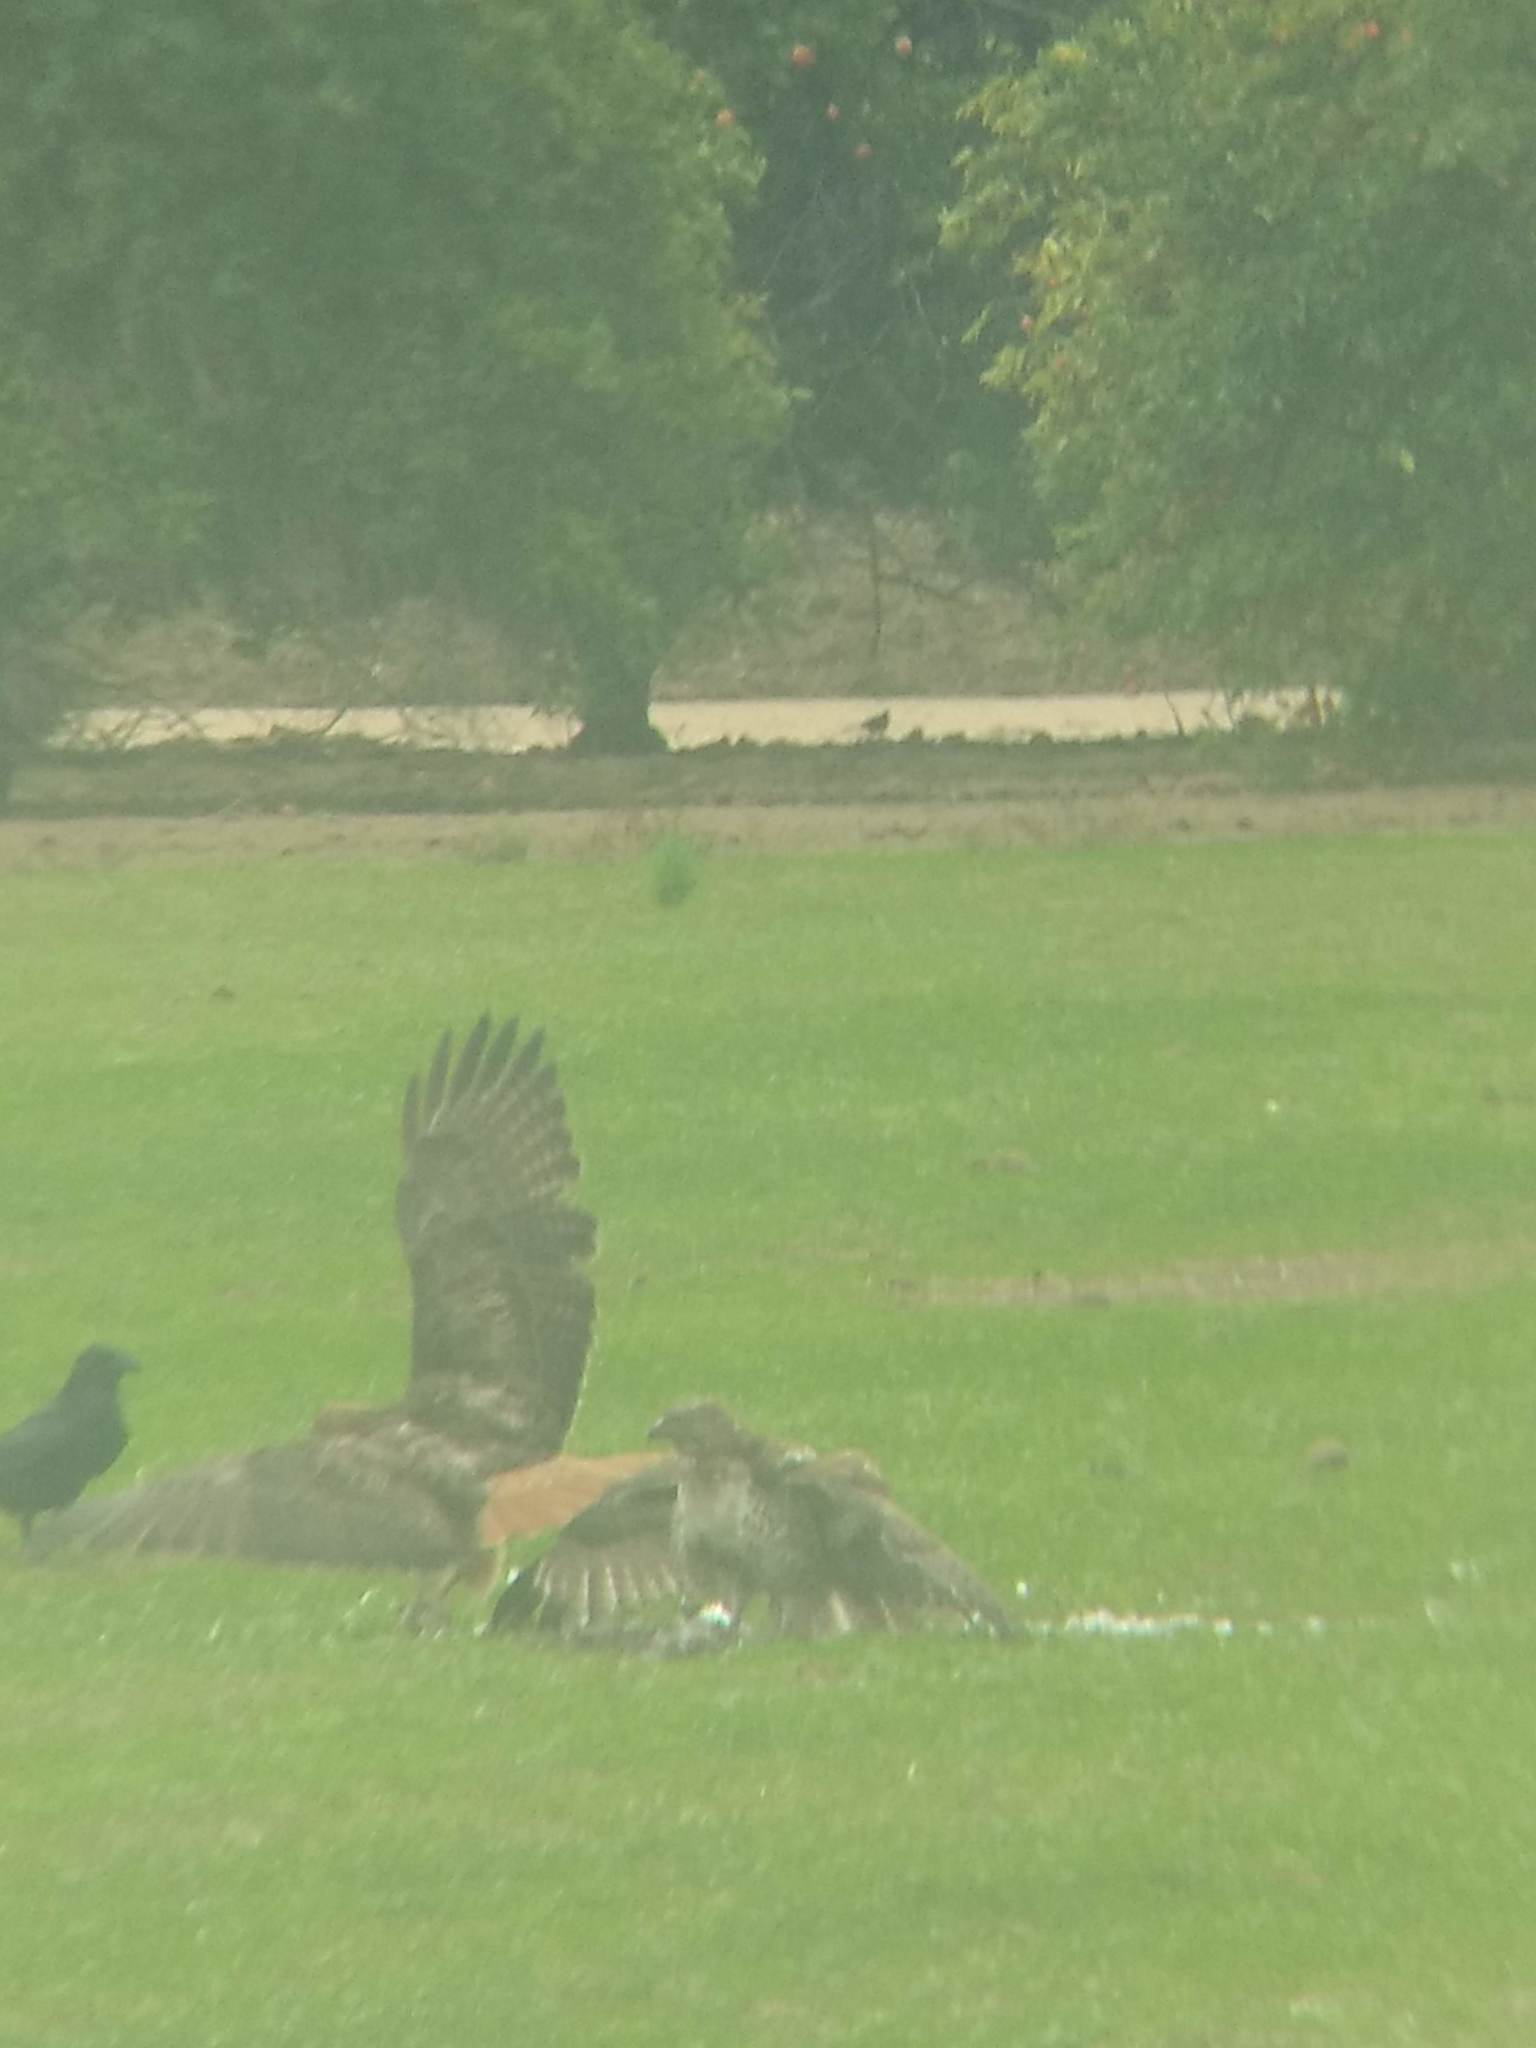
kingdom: Animalia
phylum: Chordata
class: Aves
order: Accipitriformes
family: Accipitridae
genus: Buteo
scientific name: Buteo jamaicensis
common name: Red-tailed hawk
